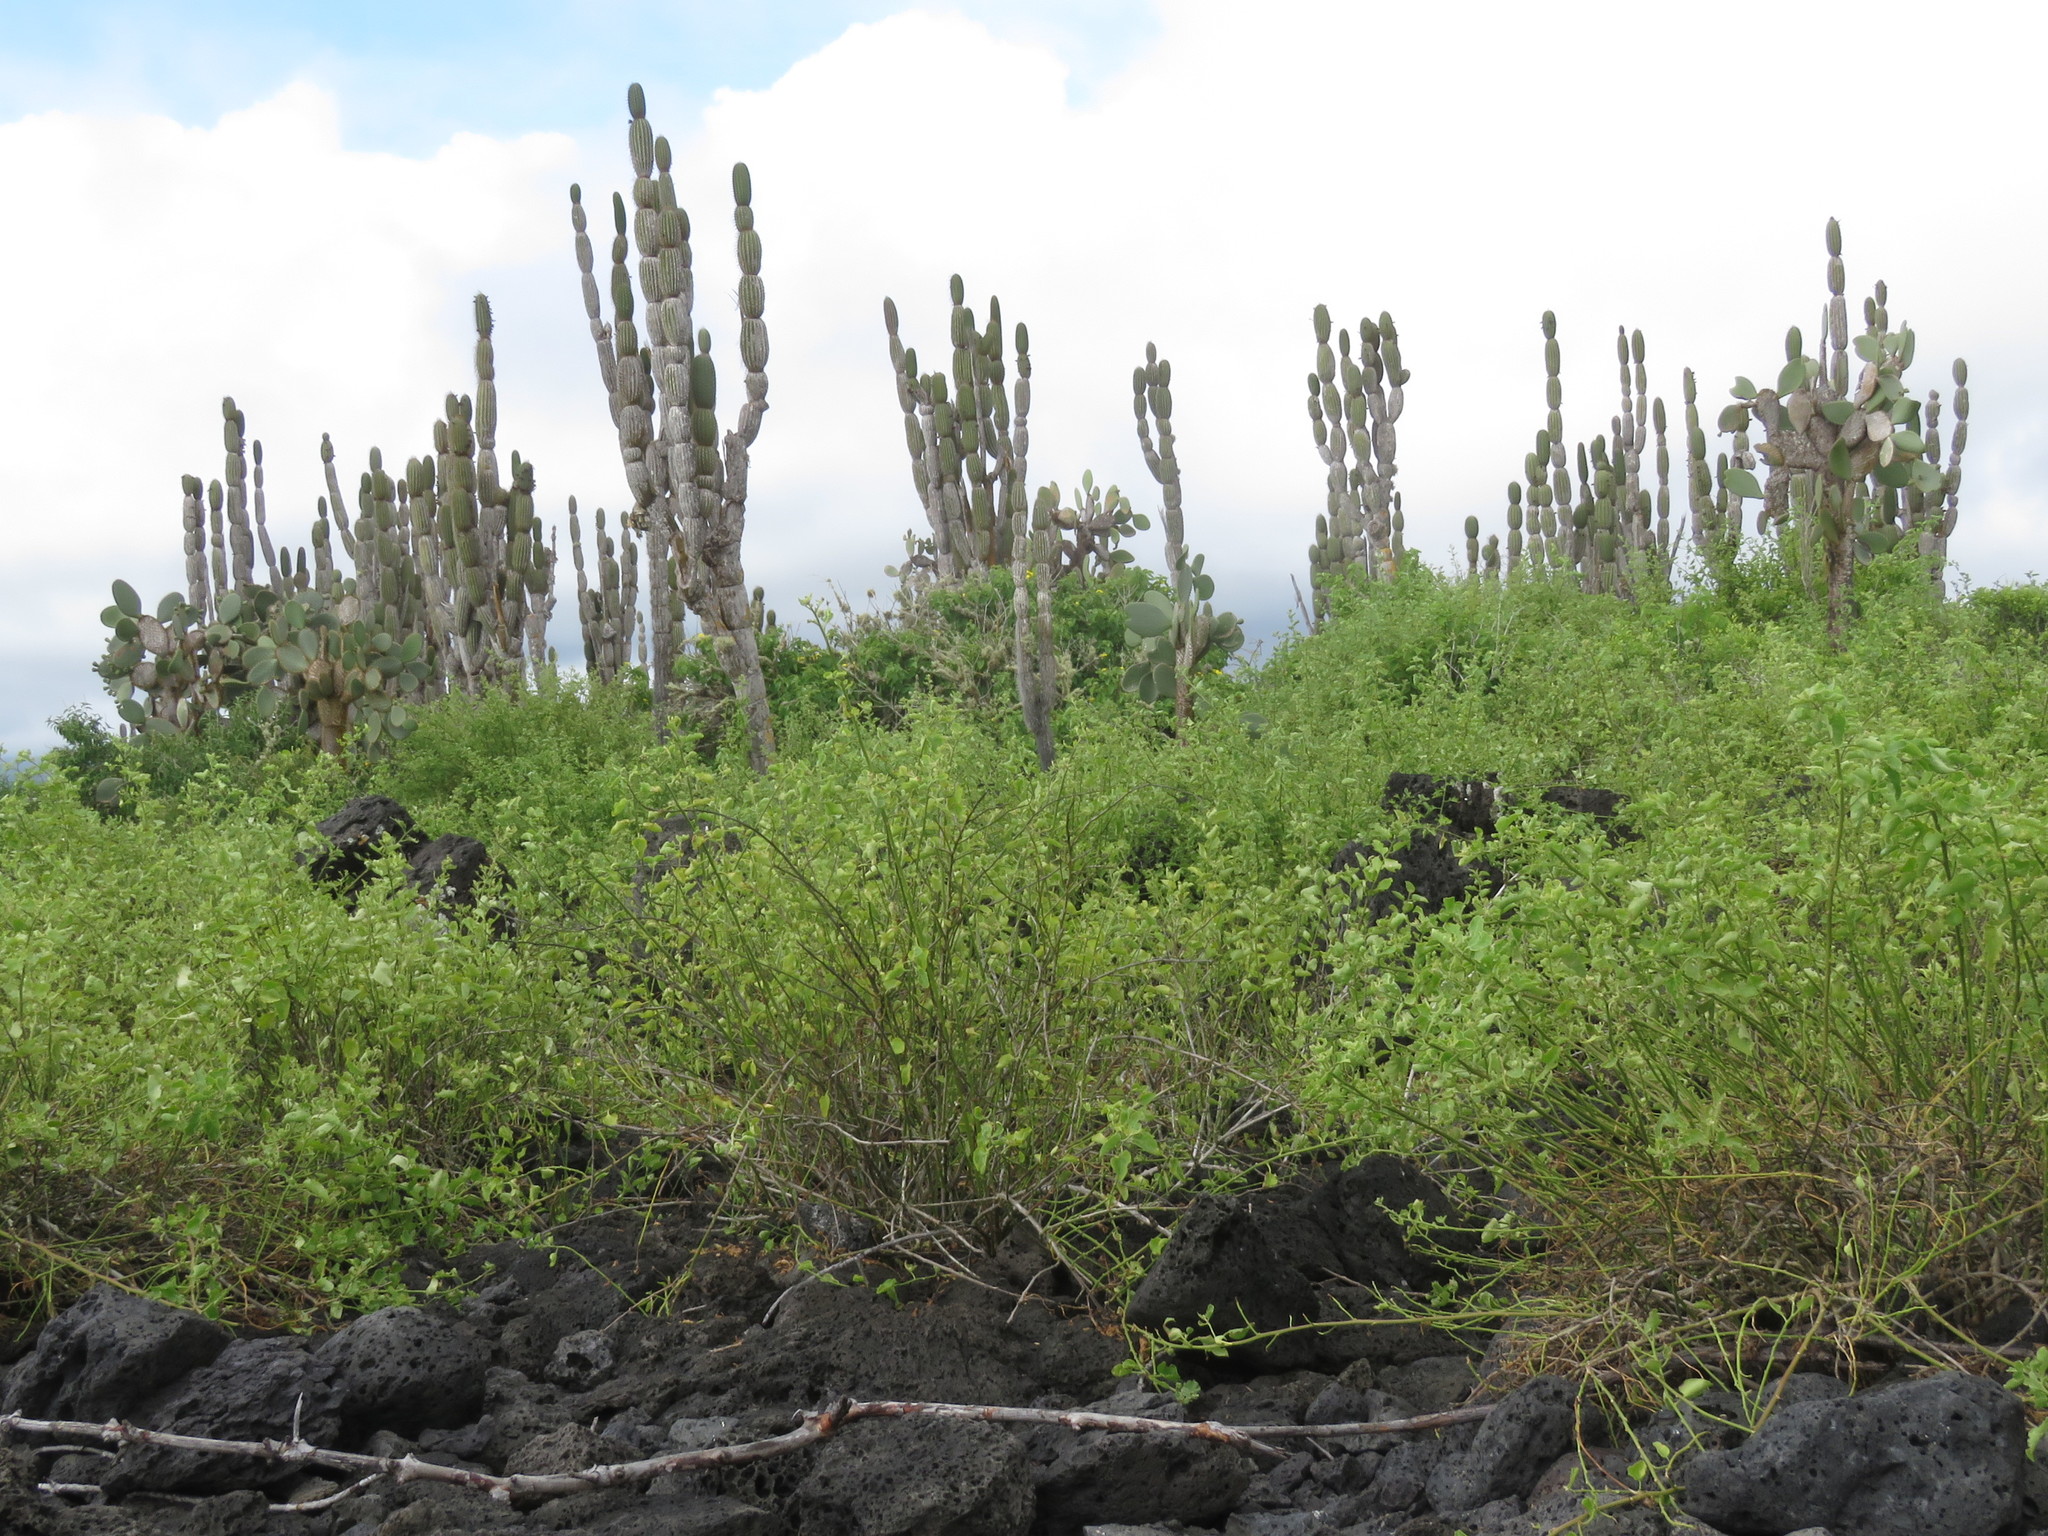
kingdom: Plantae
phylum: Tracheophyta
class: Magnoliopsida
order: Caryophyllales
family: Cactaceae
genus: Jasminocereus
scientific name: Jasminocereus thouarsii
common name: Candelabra cactus
